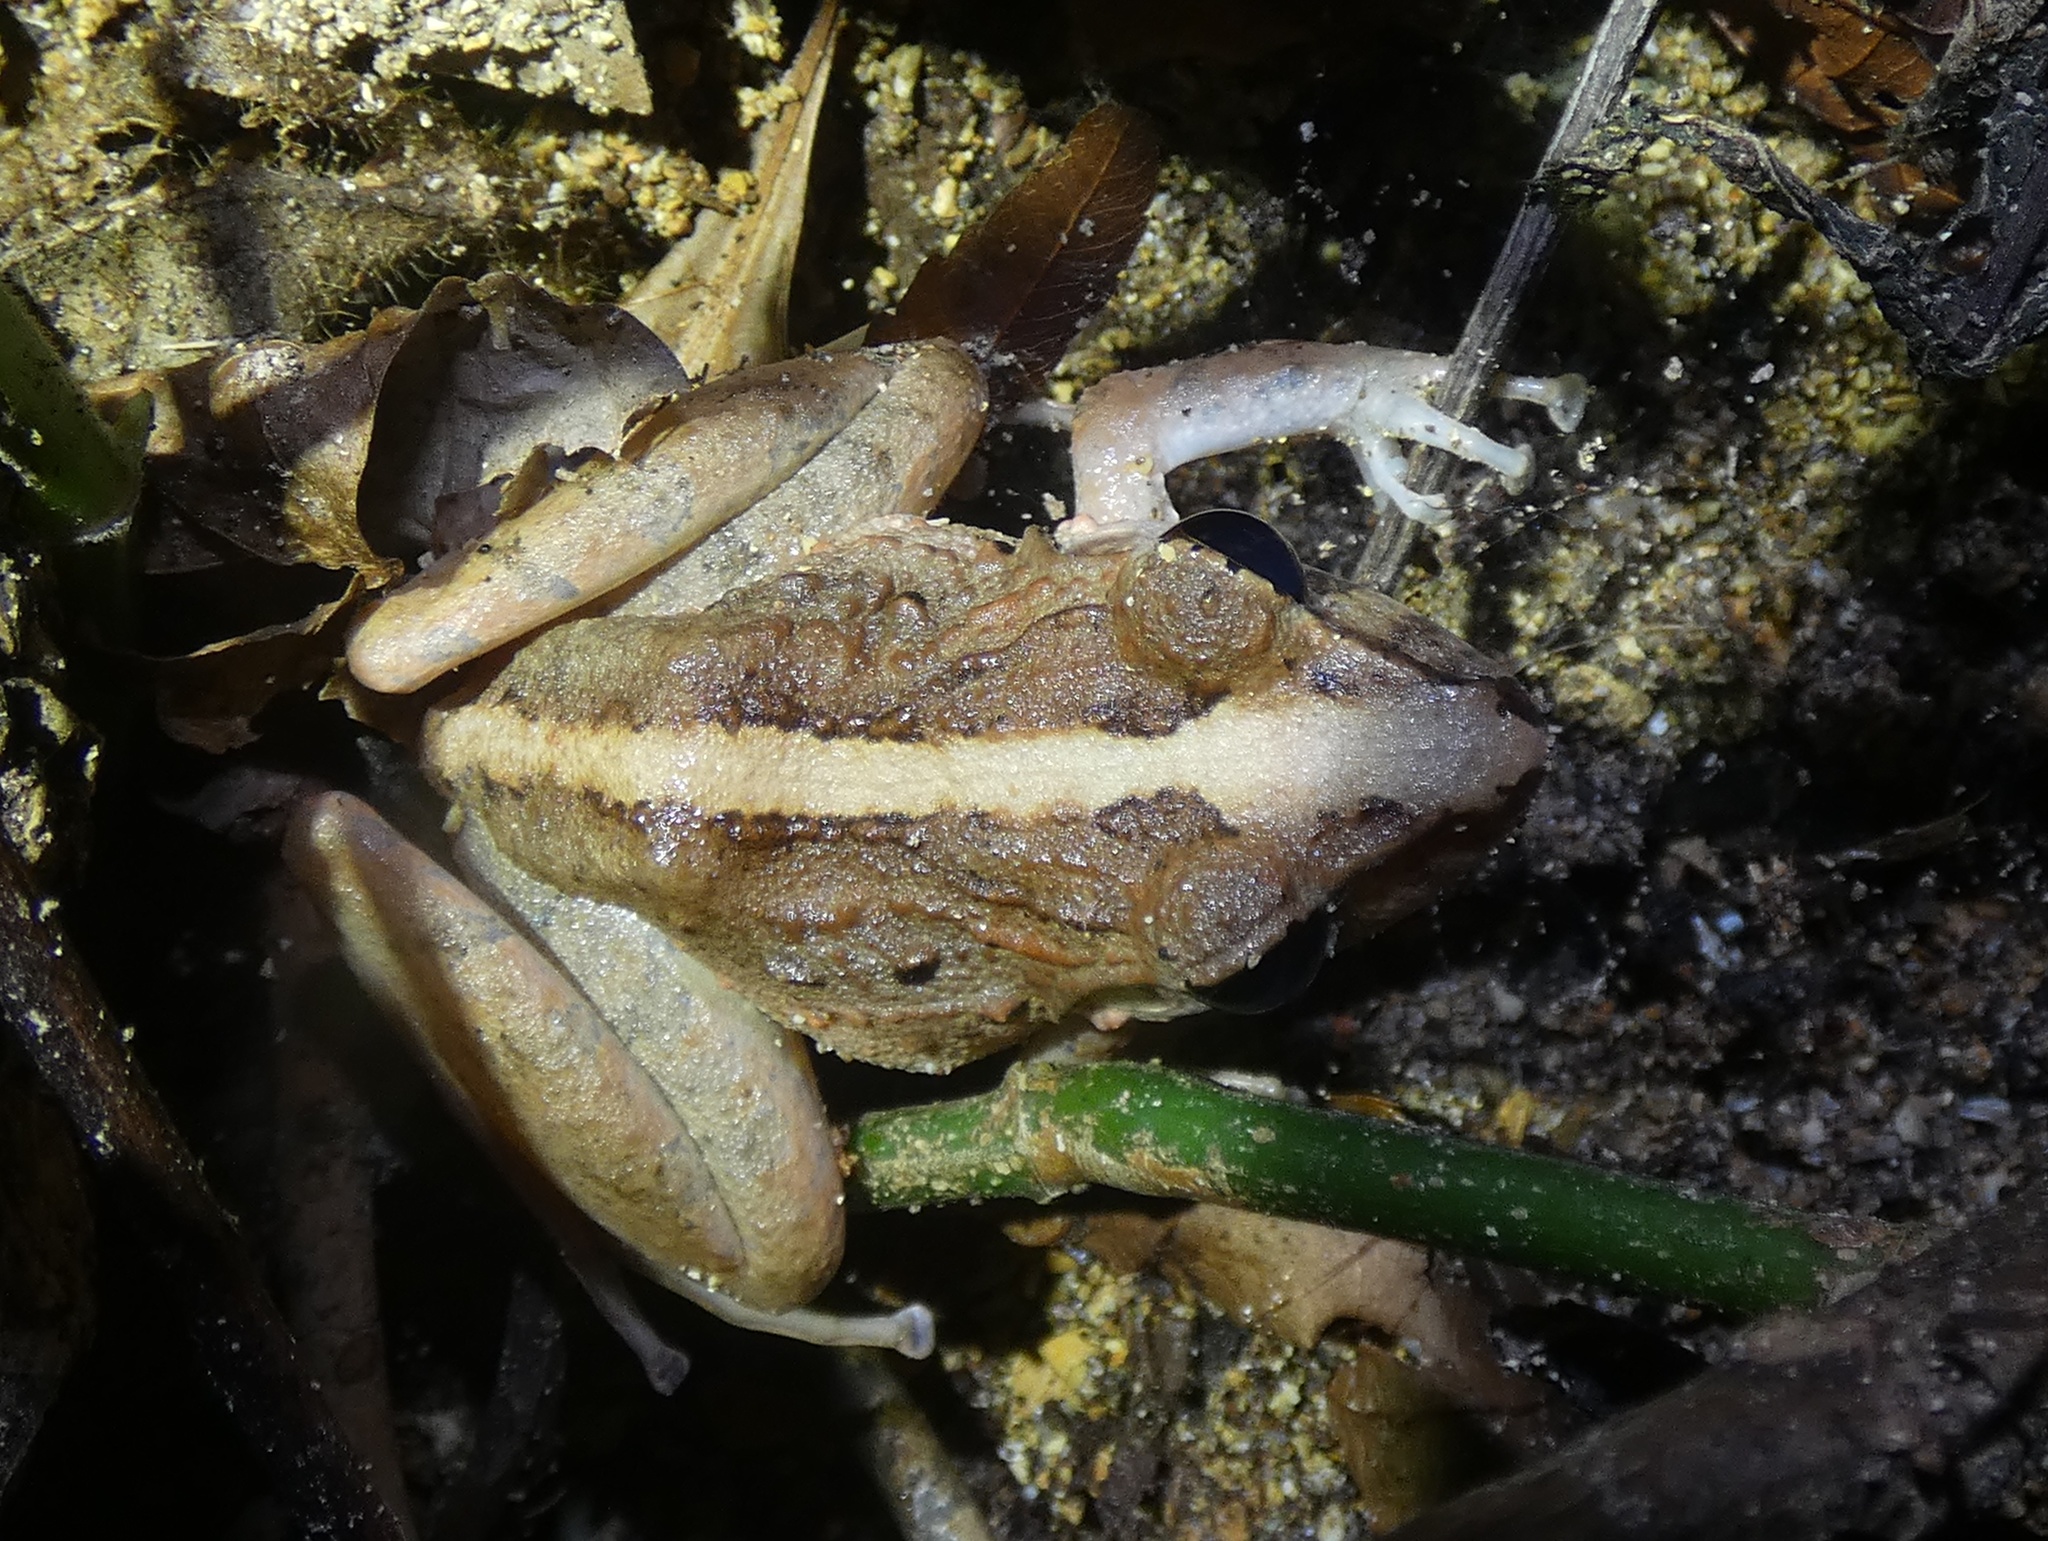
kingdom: Animalia
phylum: Chordata
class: Amphibia
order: Anura
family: Craugastoridae
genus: Craugastor
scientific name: Craugastor fitzingeri
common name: Fitzinger's robber frog
